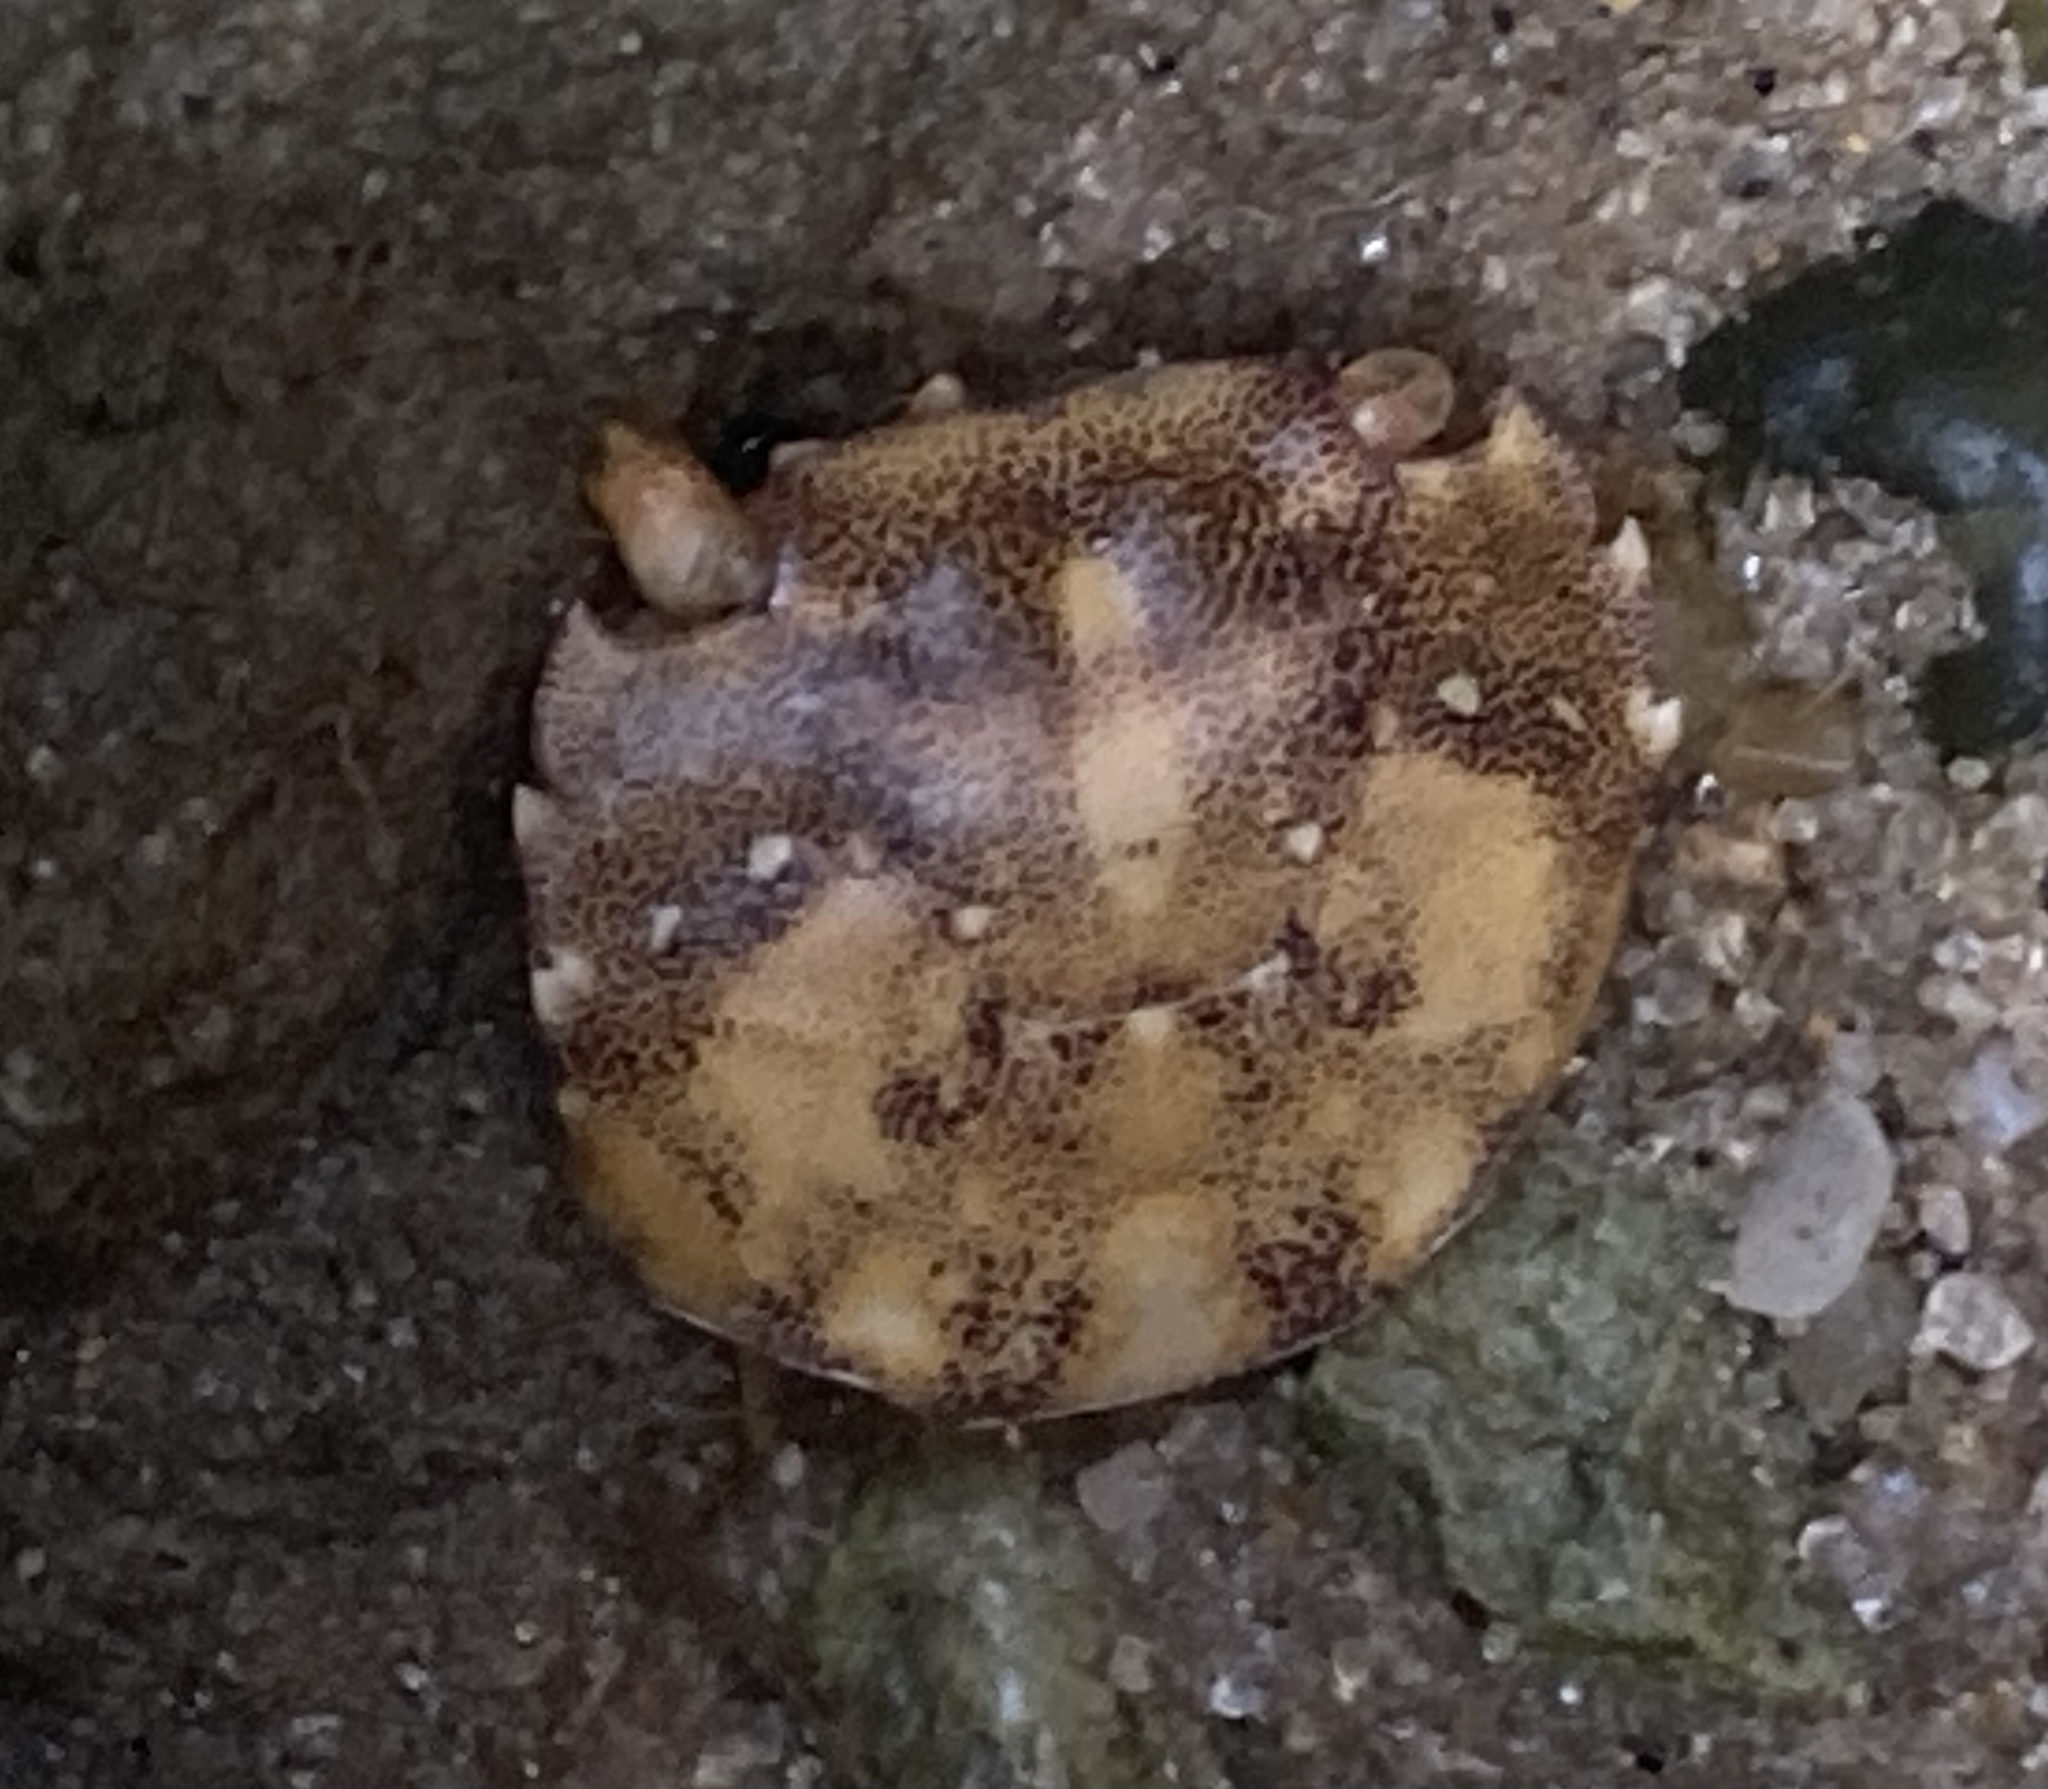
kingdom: Animalia
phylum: Arthropoda
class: Malacostraca
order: Decapoda
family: Varunidae
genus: Hemigrapsus
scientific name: Hemigrapsus sanguineus
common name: Asian shore crab
